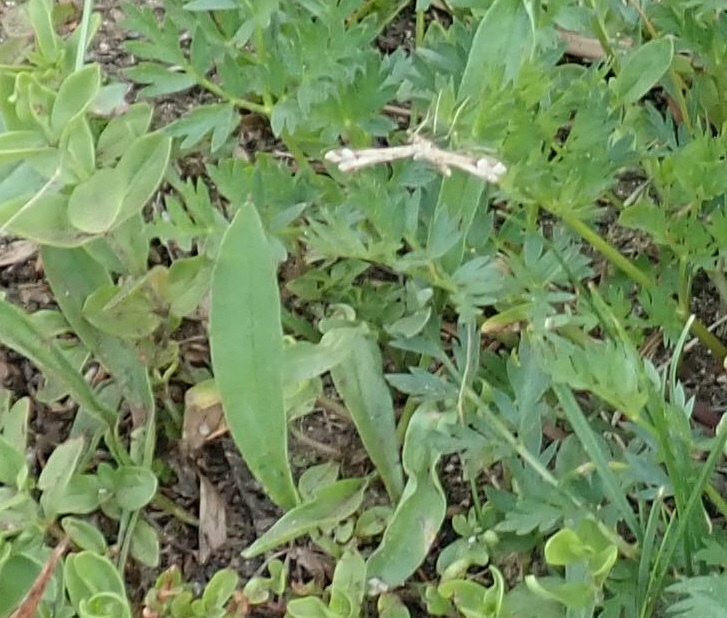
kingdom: Animalia
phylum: Arthropoda
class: Insecta
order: Lepidoptera
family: Pterophoridae
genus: Emmelina
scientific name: Emmelina monodactyla
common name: Common plume
